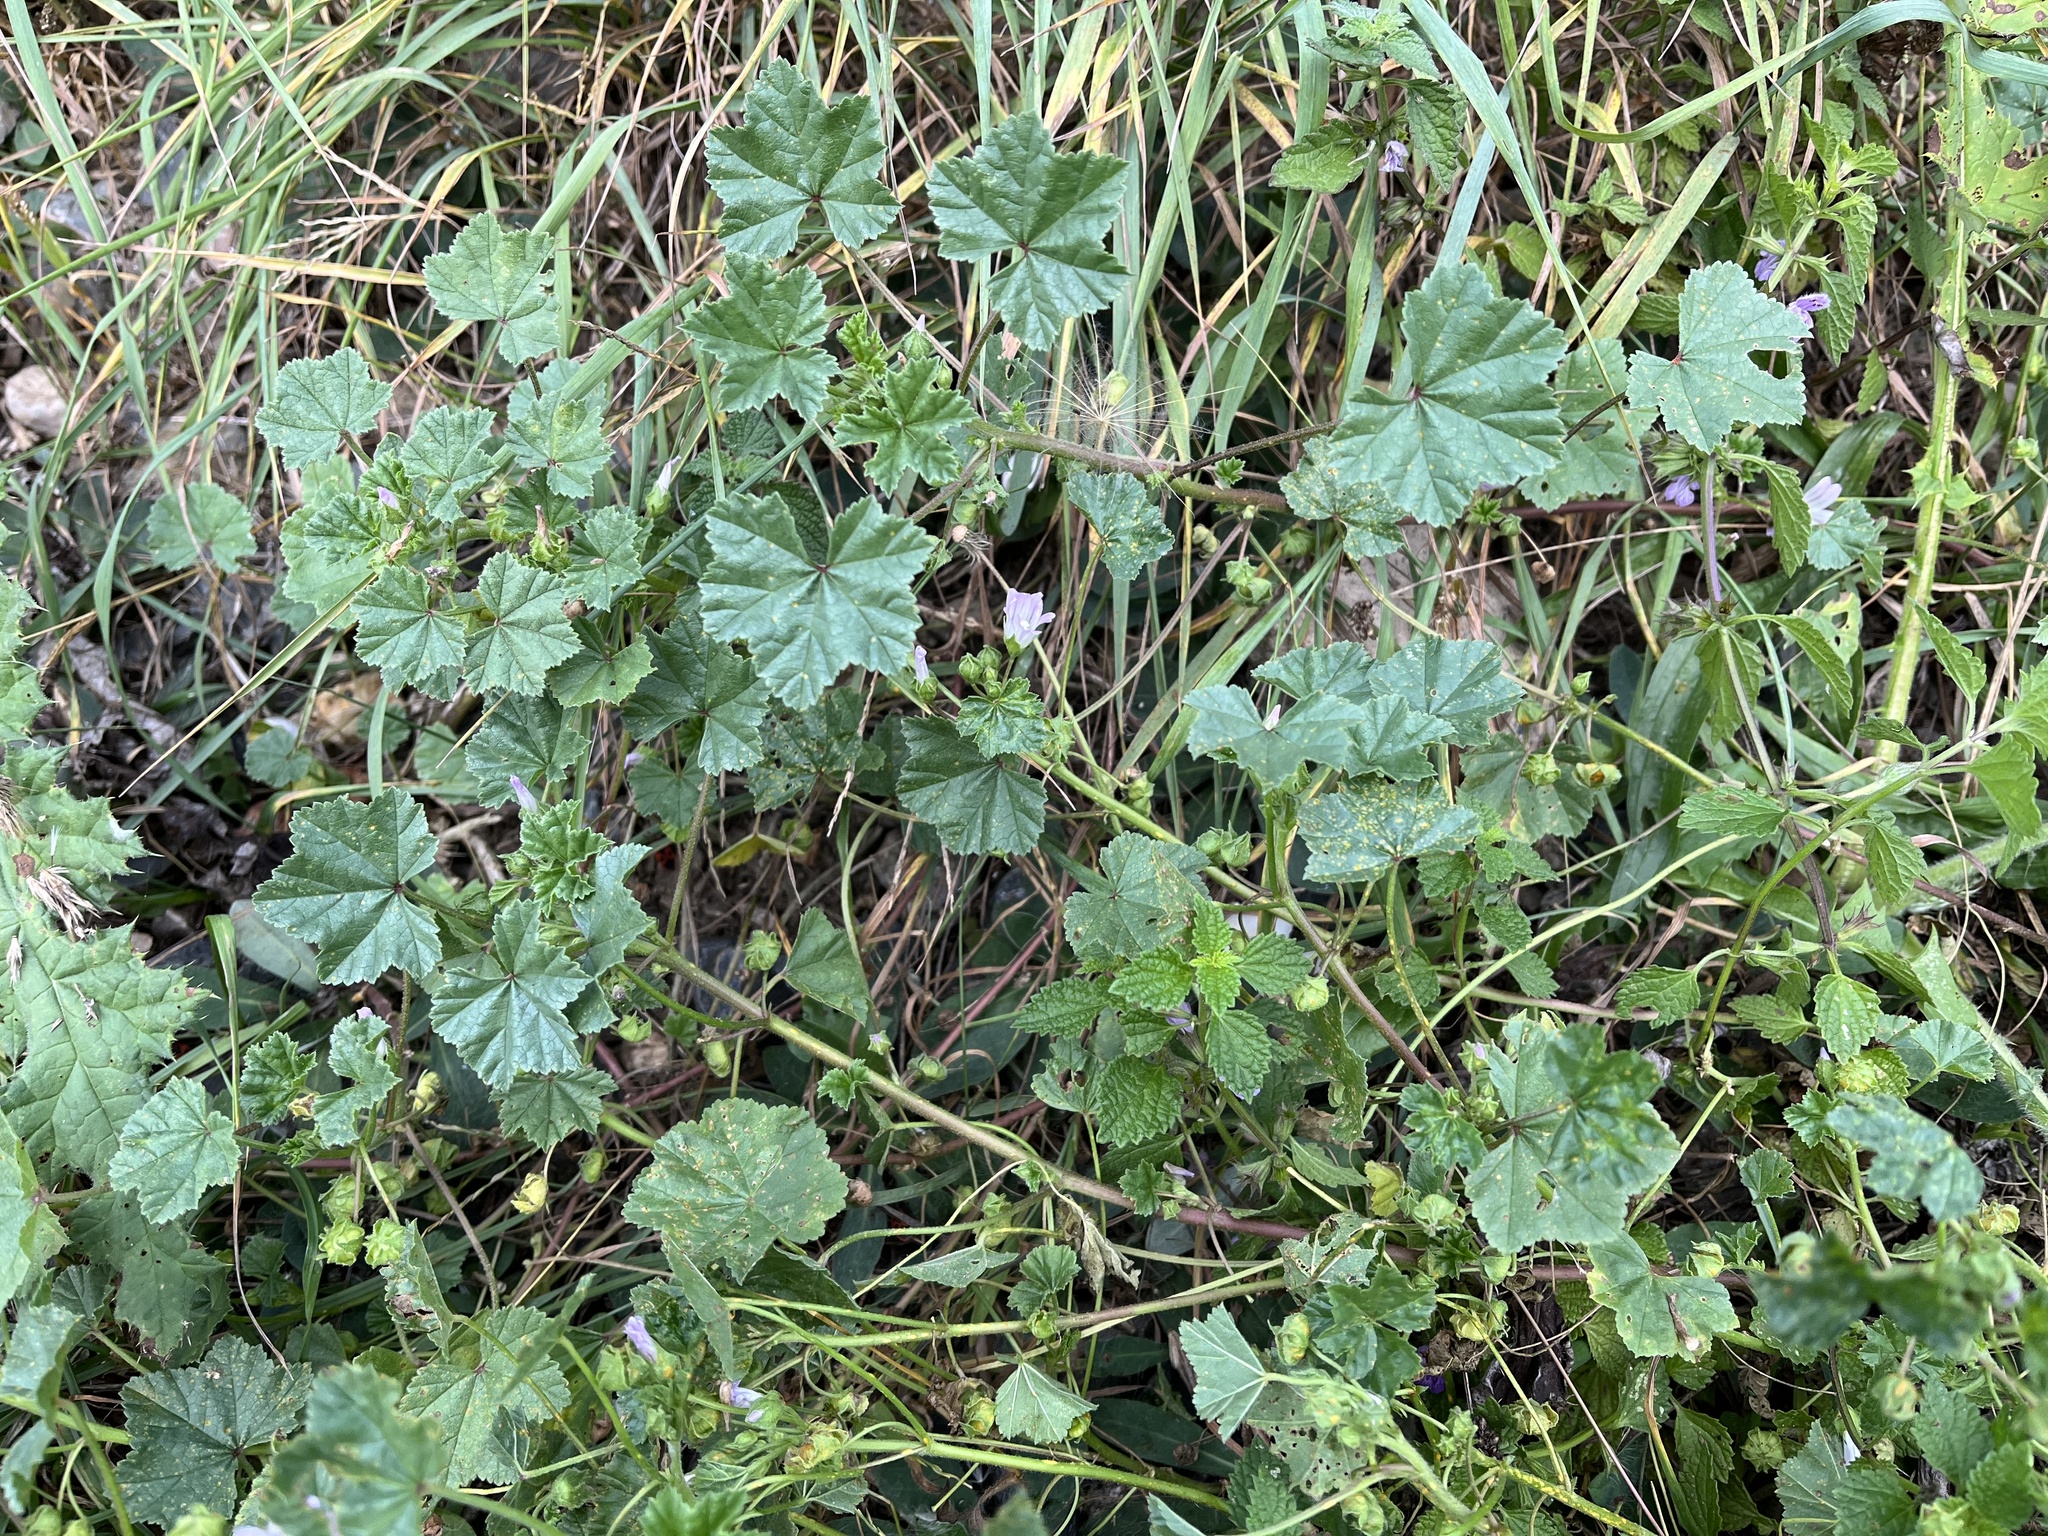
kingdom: Plantae
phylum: Tracheophyta
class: Magnoliopsida
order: Malvales
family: Malvaceae
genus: Malva
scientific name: Malva neglecta
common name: Common mallow
